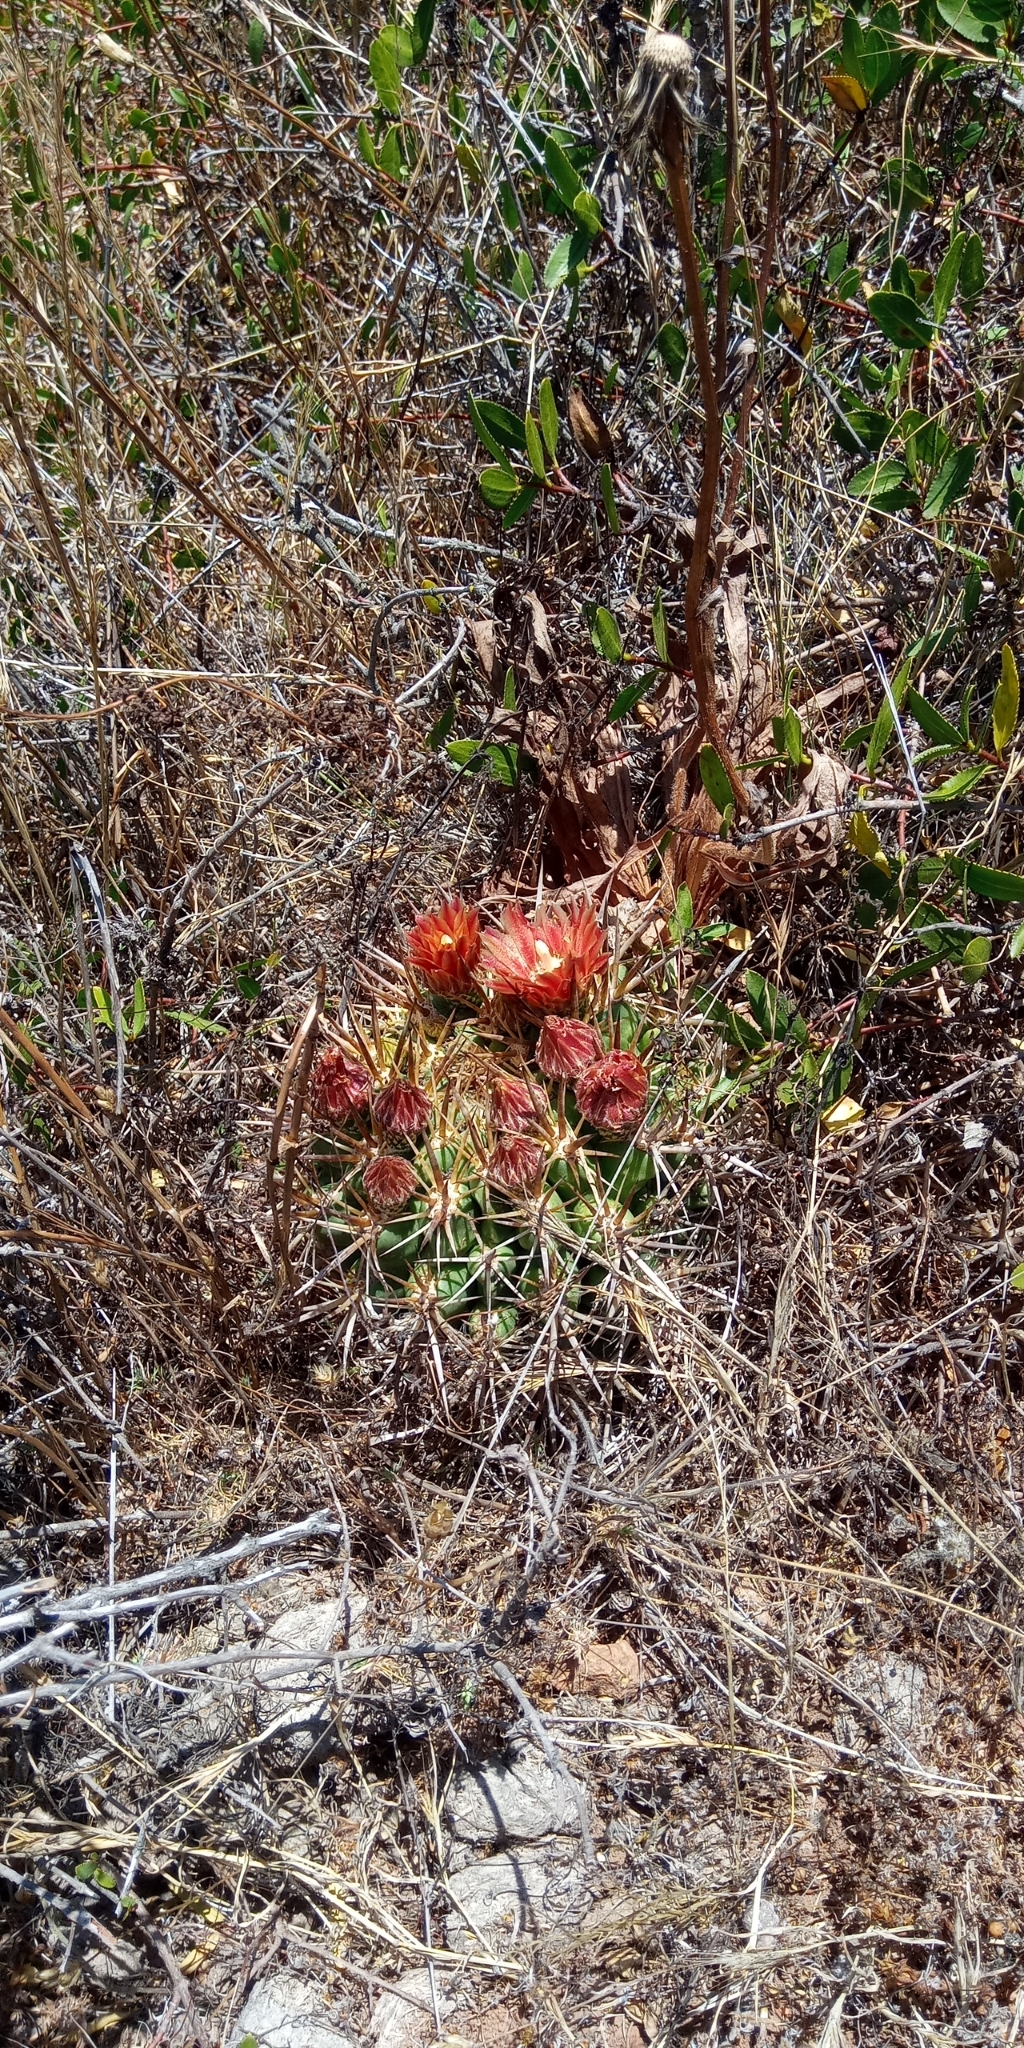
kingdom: Plantae
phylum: Tracheophyta
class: Magnoliopsida
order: Caryophyllales
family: Cactaceae
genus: Eriosyce
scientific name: Eriosyce
